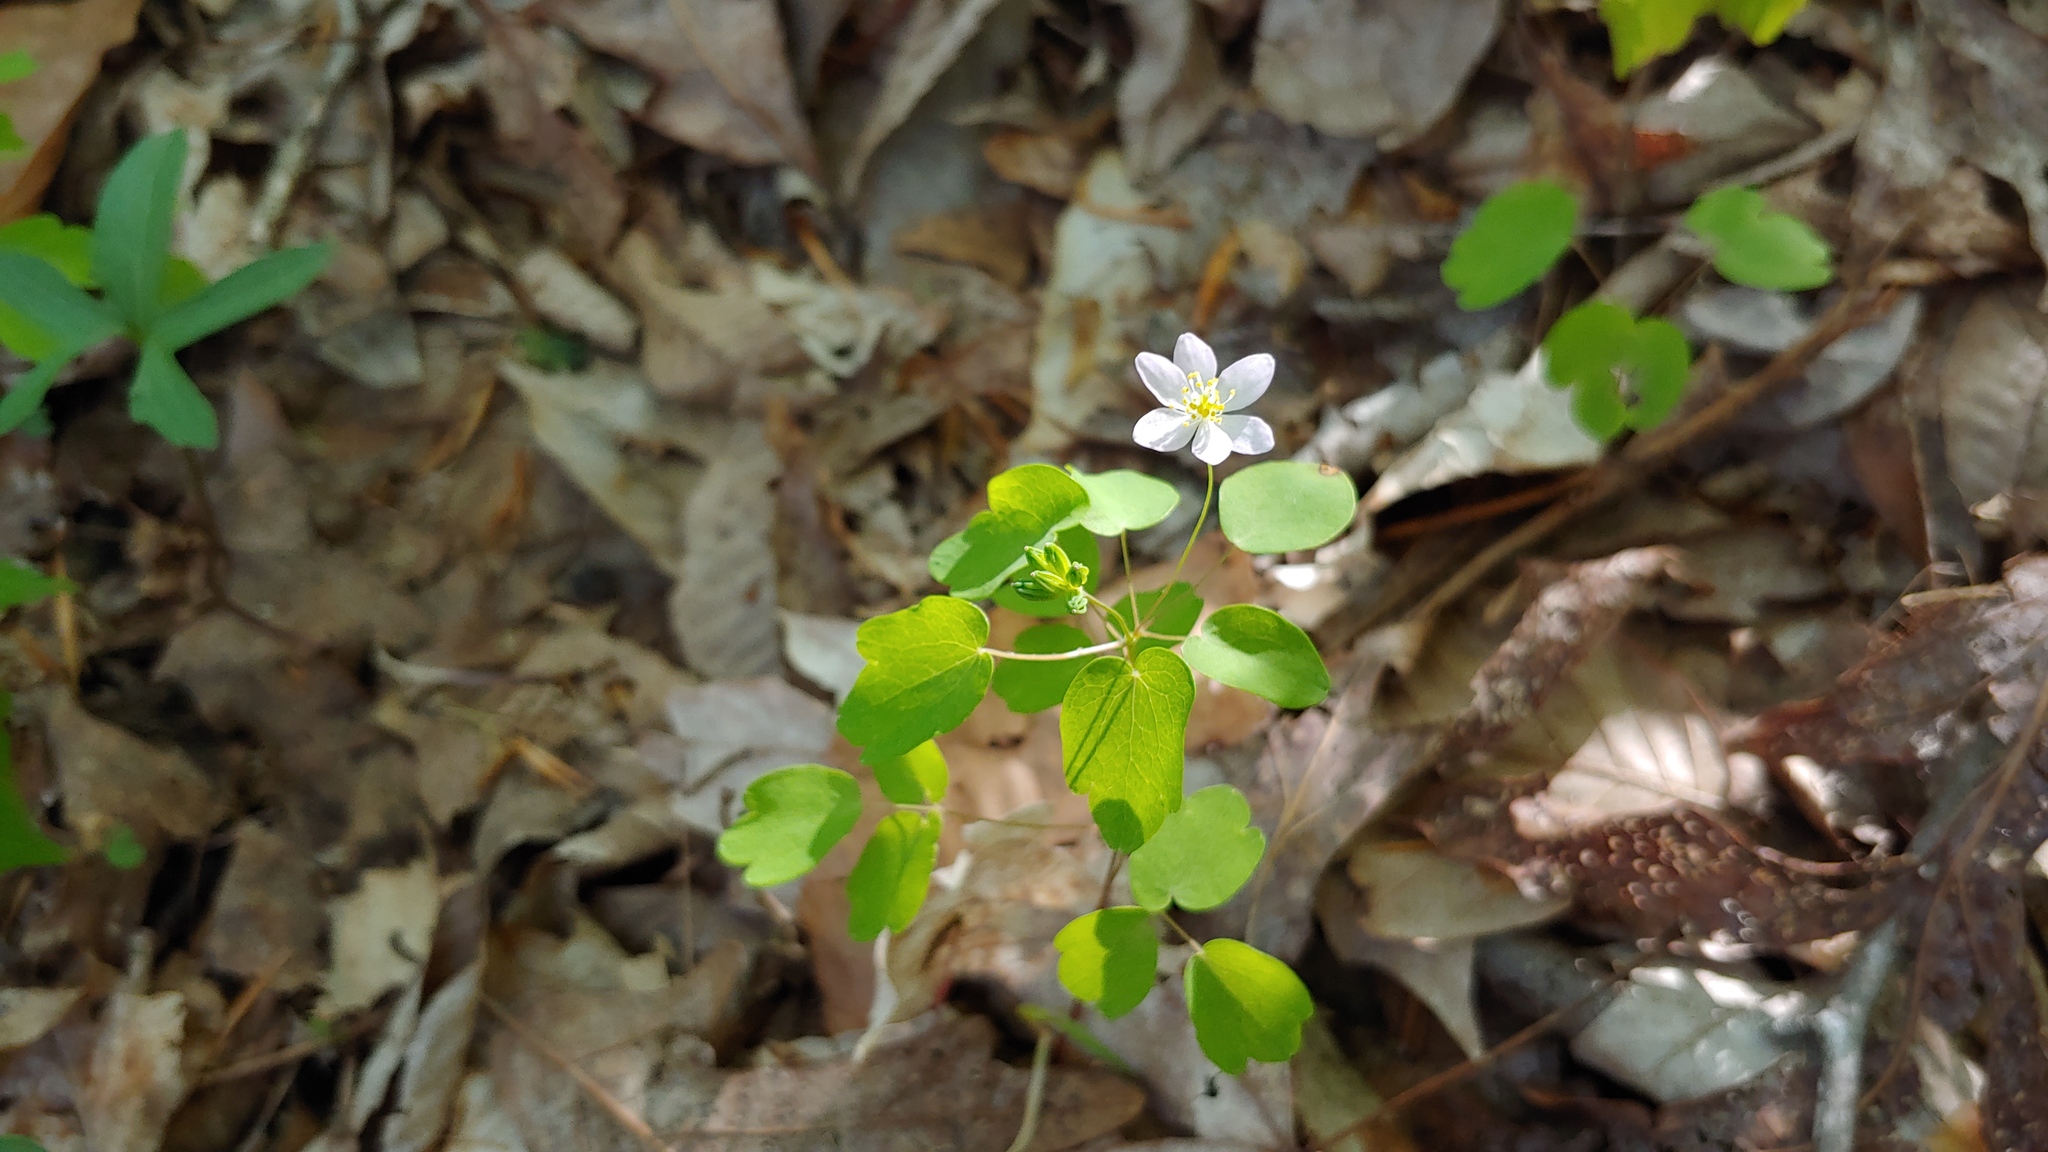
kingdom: Plantae
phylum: Tracheophyta
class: Magnoliopsida
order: Ranunculales
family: Ranunculaceae
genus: Thalictrum
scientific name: Thalictrum thalictroides
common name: Rue-anemone
